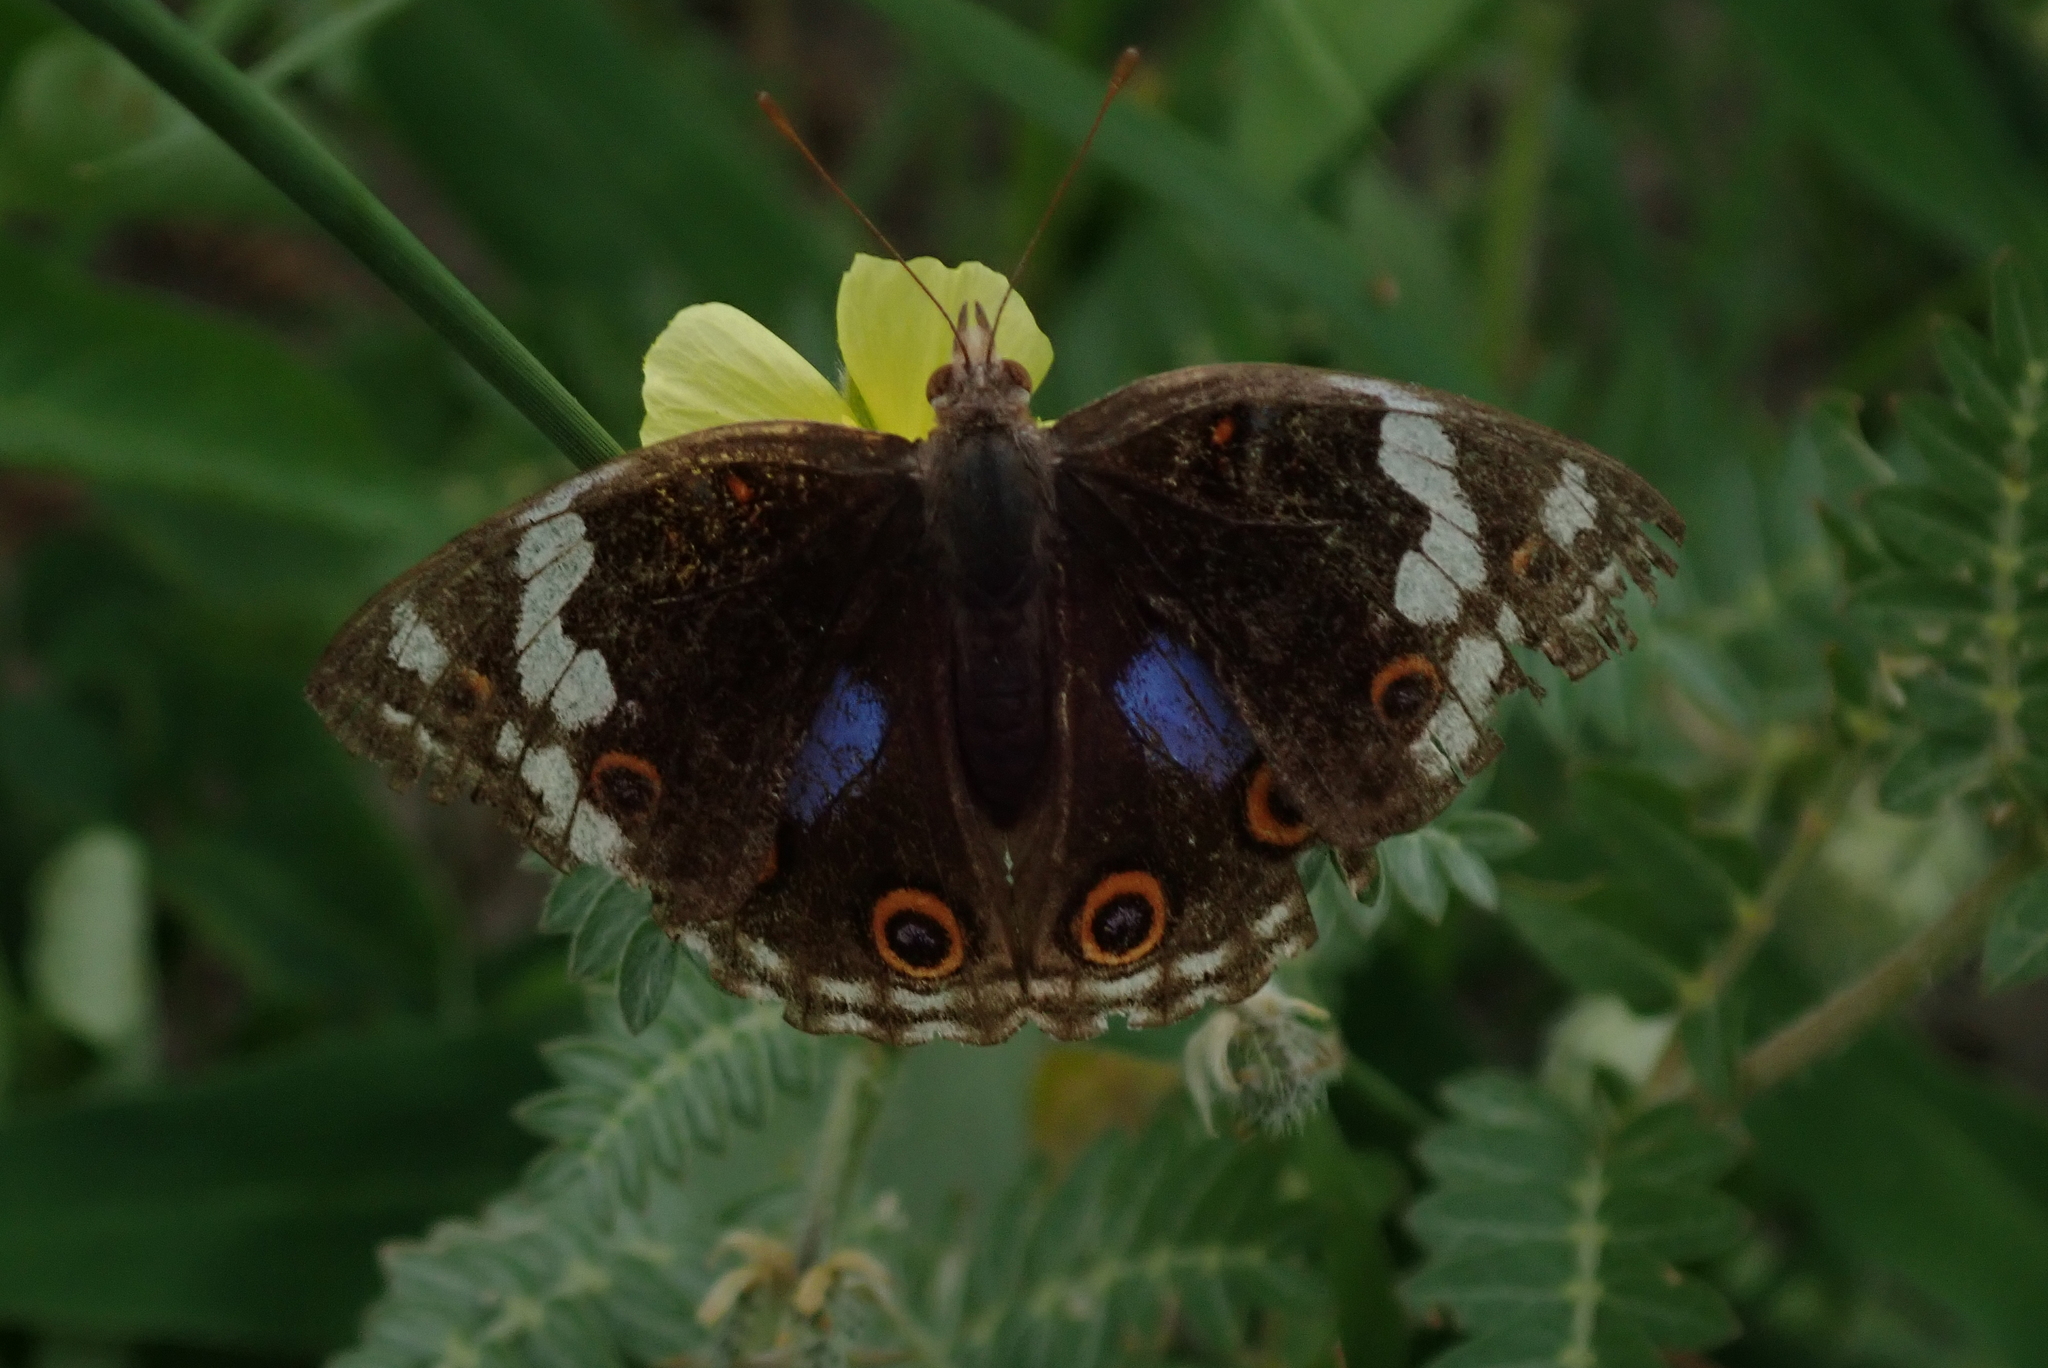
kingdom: Animalia
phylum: Arthropoda
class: Insecta
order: Lepidoptera
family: Nymphalidae
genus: Junonia
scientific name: Junonia oenone
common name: Dark blue pansy
